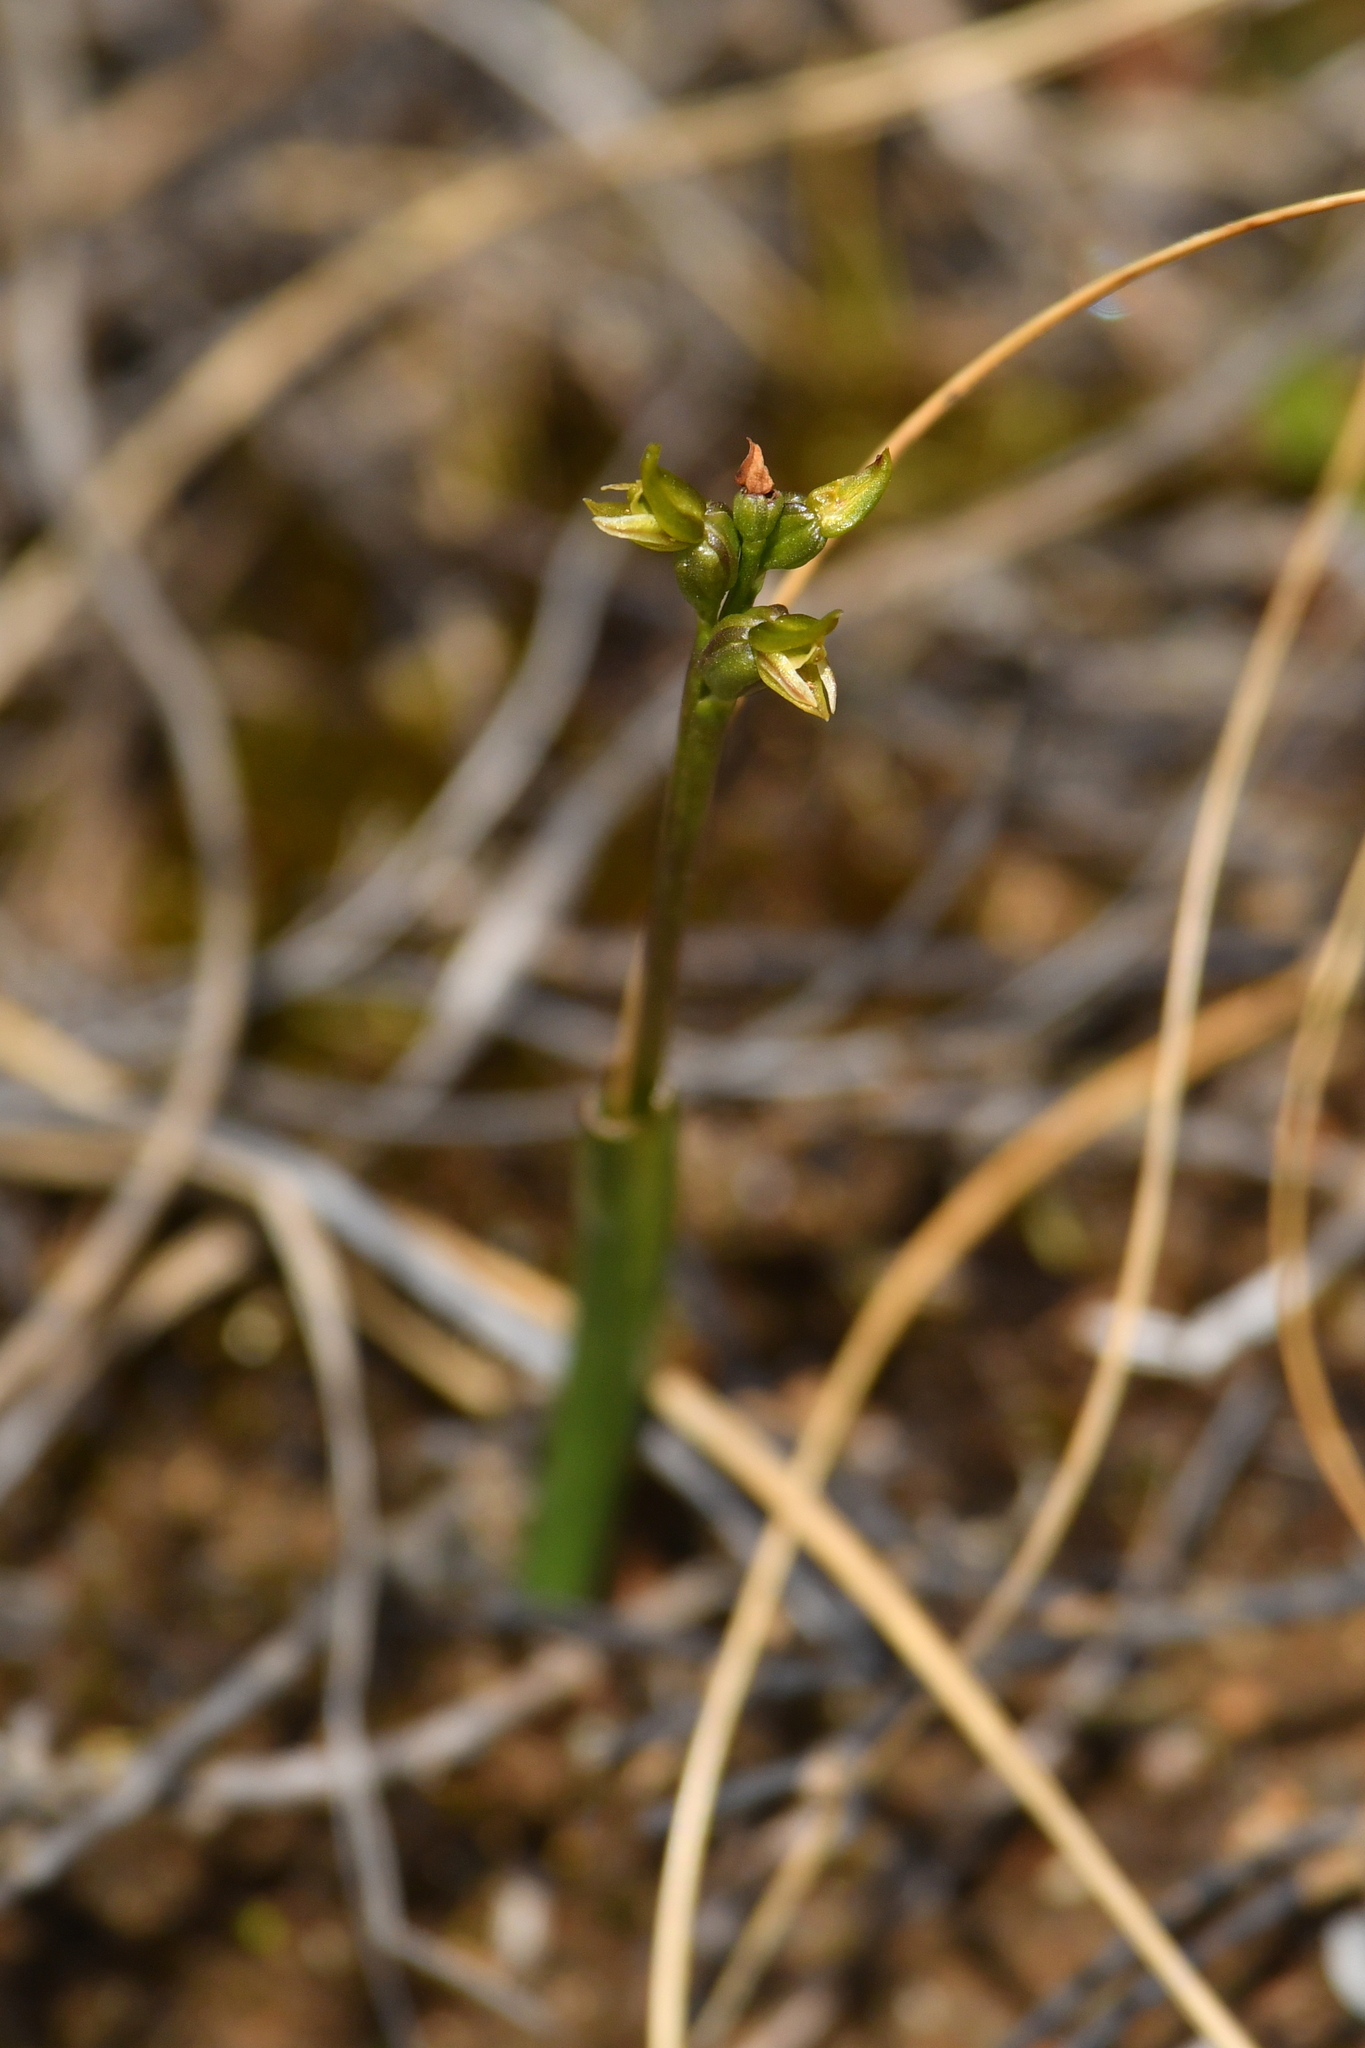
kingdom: Plantae
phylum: Tracheophyta
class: Liliopsida
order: Asparagales
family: Orchidaceae
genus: Prasophyllum
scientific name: Prasophyllum colensoi
